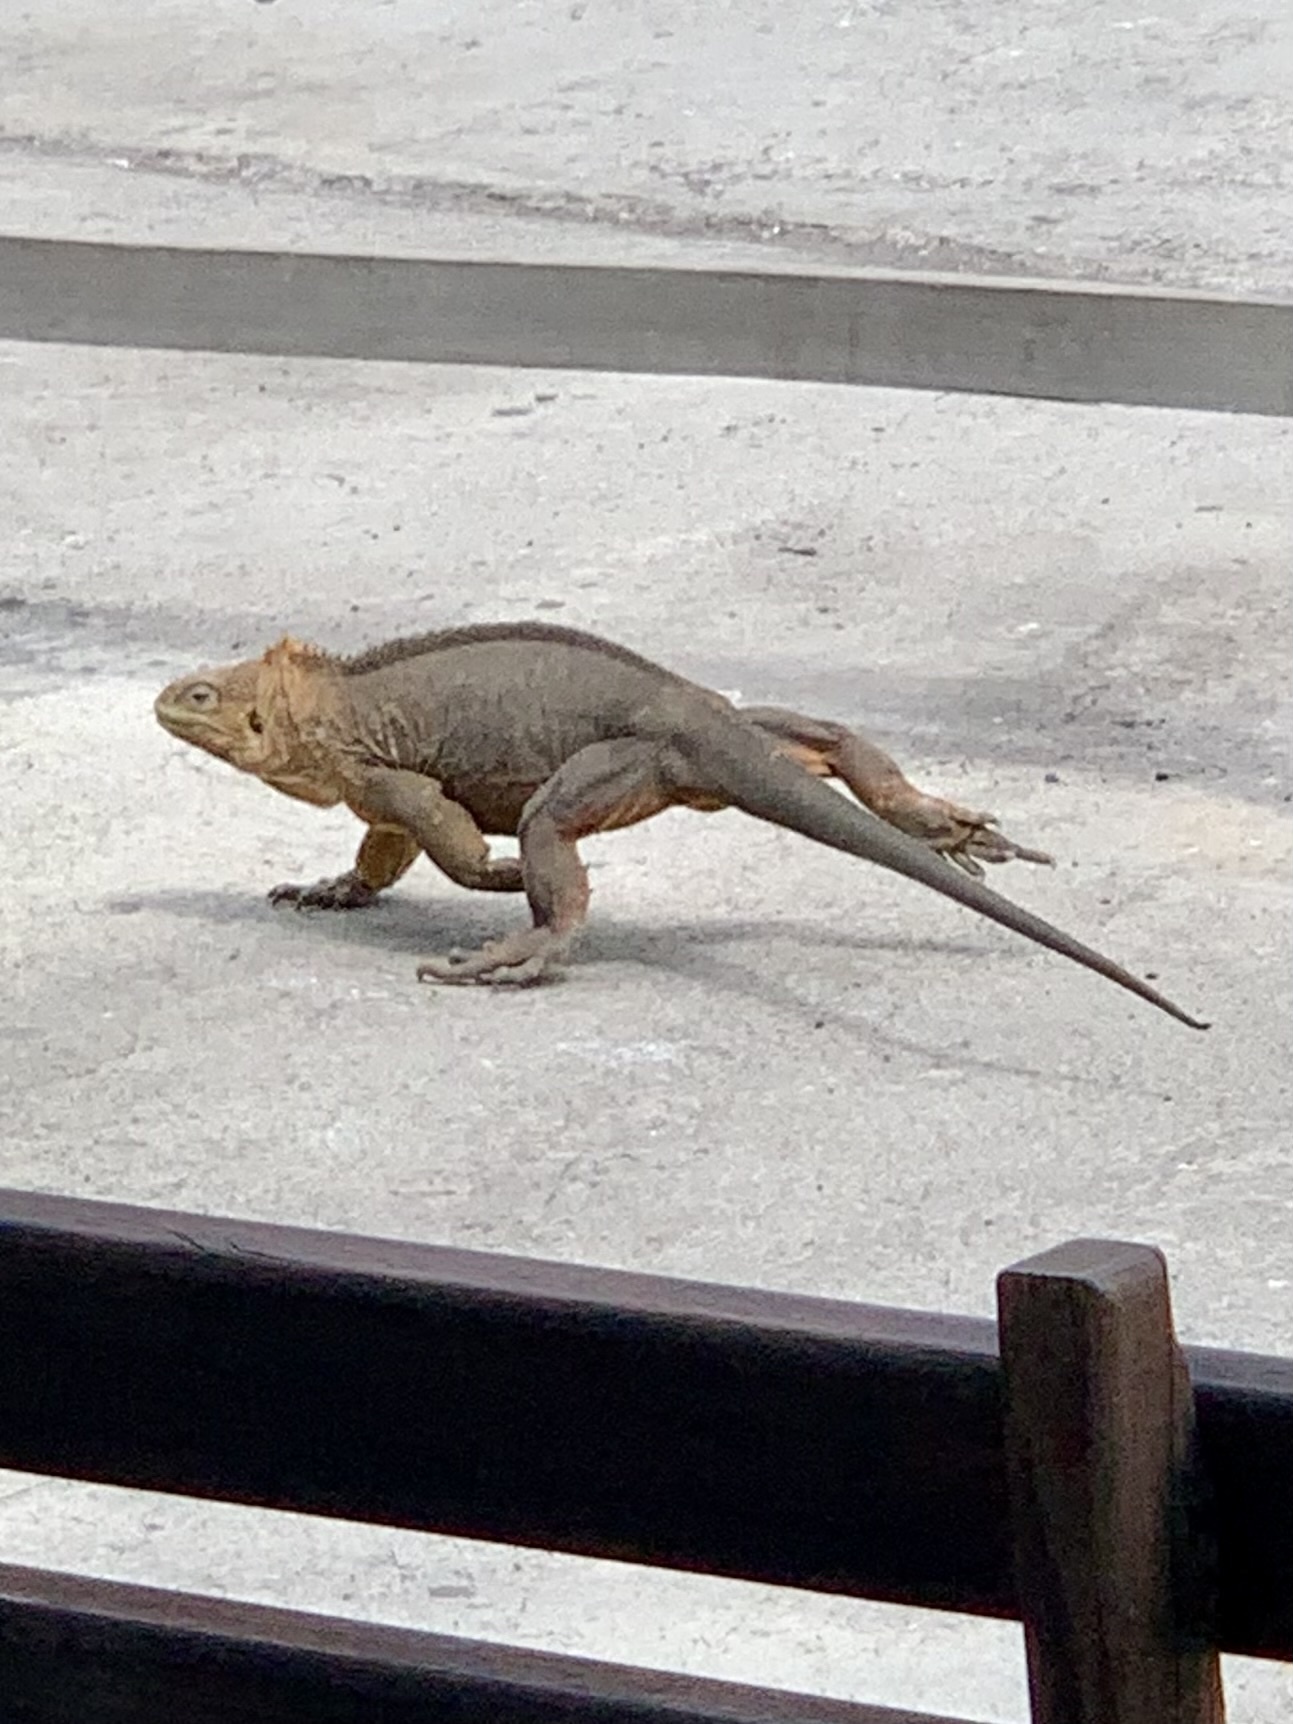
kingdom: Animalia
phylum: Chordata
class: Squamata
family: Iguanidae
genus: Conolophus
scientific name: Conolophus subcristatus
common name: Galapagos land iguana
